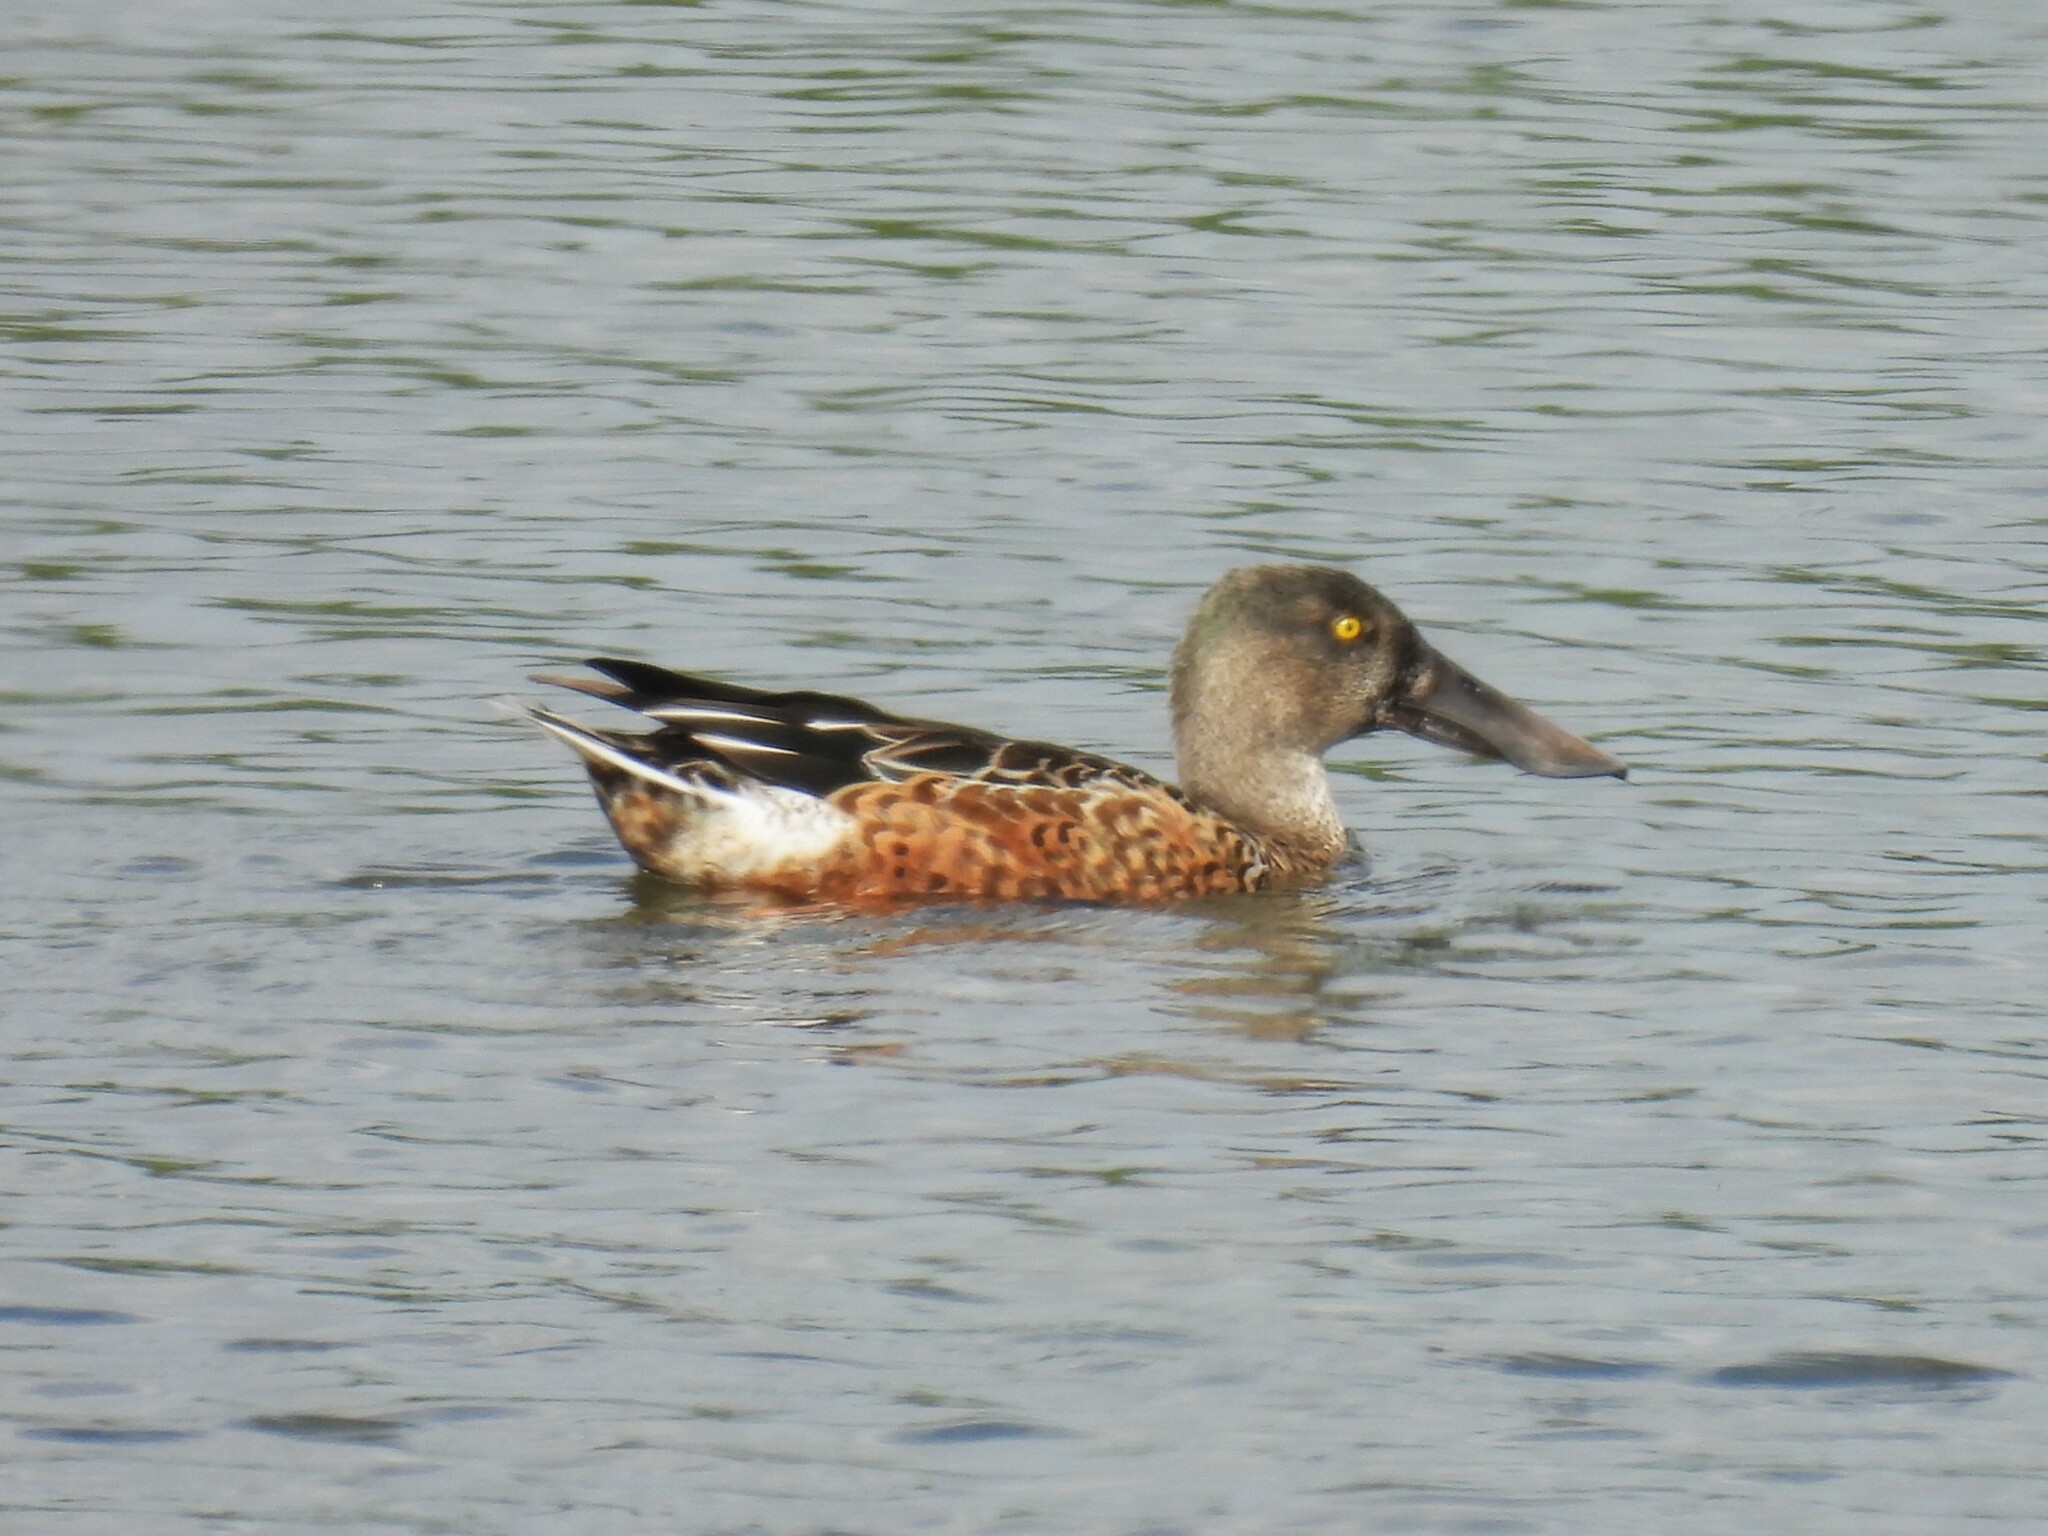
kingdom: Animalia
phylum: Chordata
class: Aves
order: Anseriformes
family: Anatidae
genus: Spatula
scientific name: Spatula clypeata
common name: Northern shoveler
